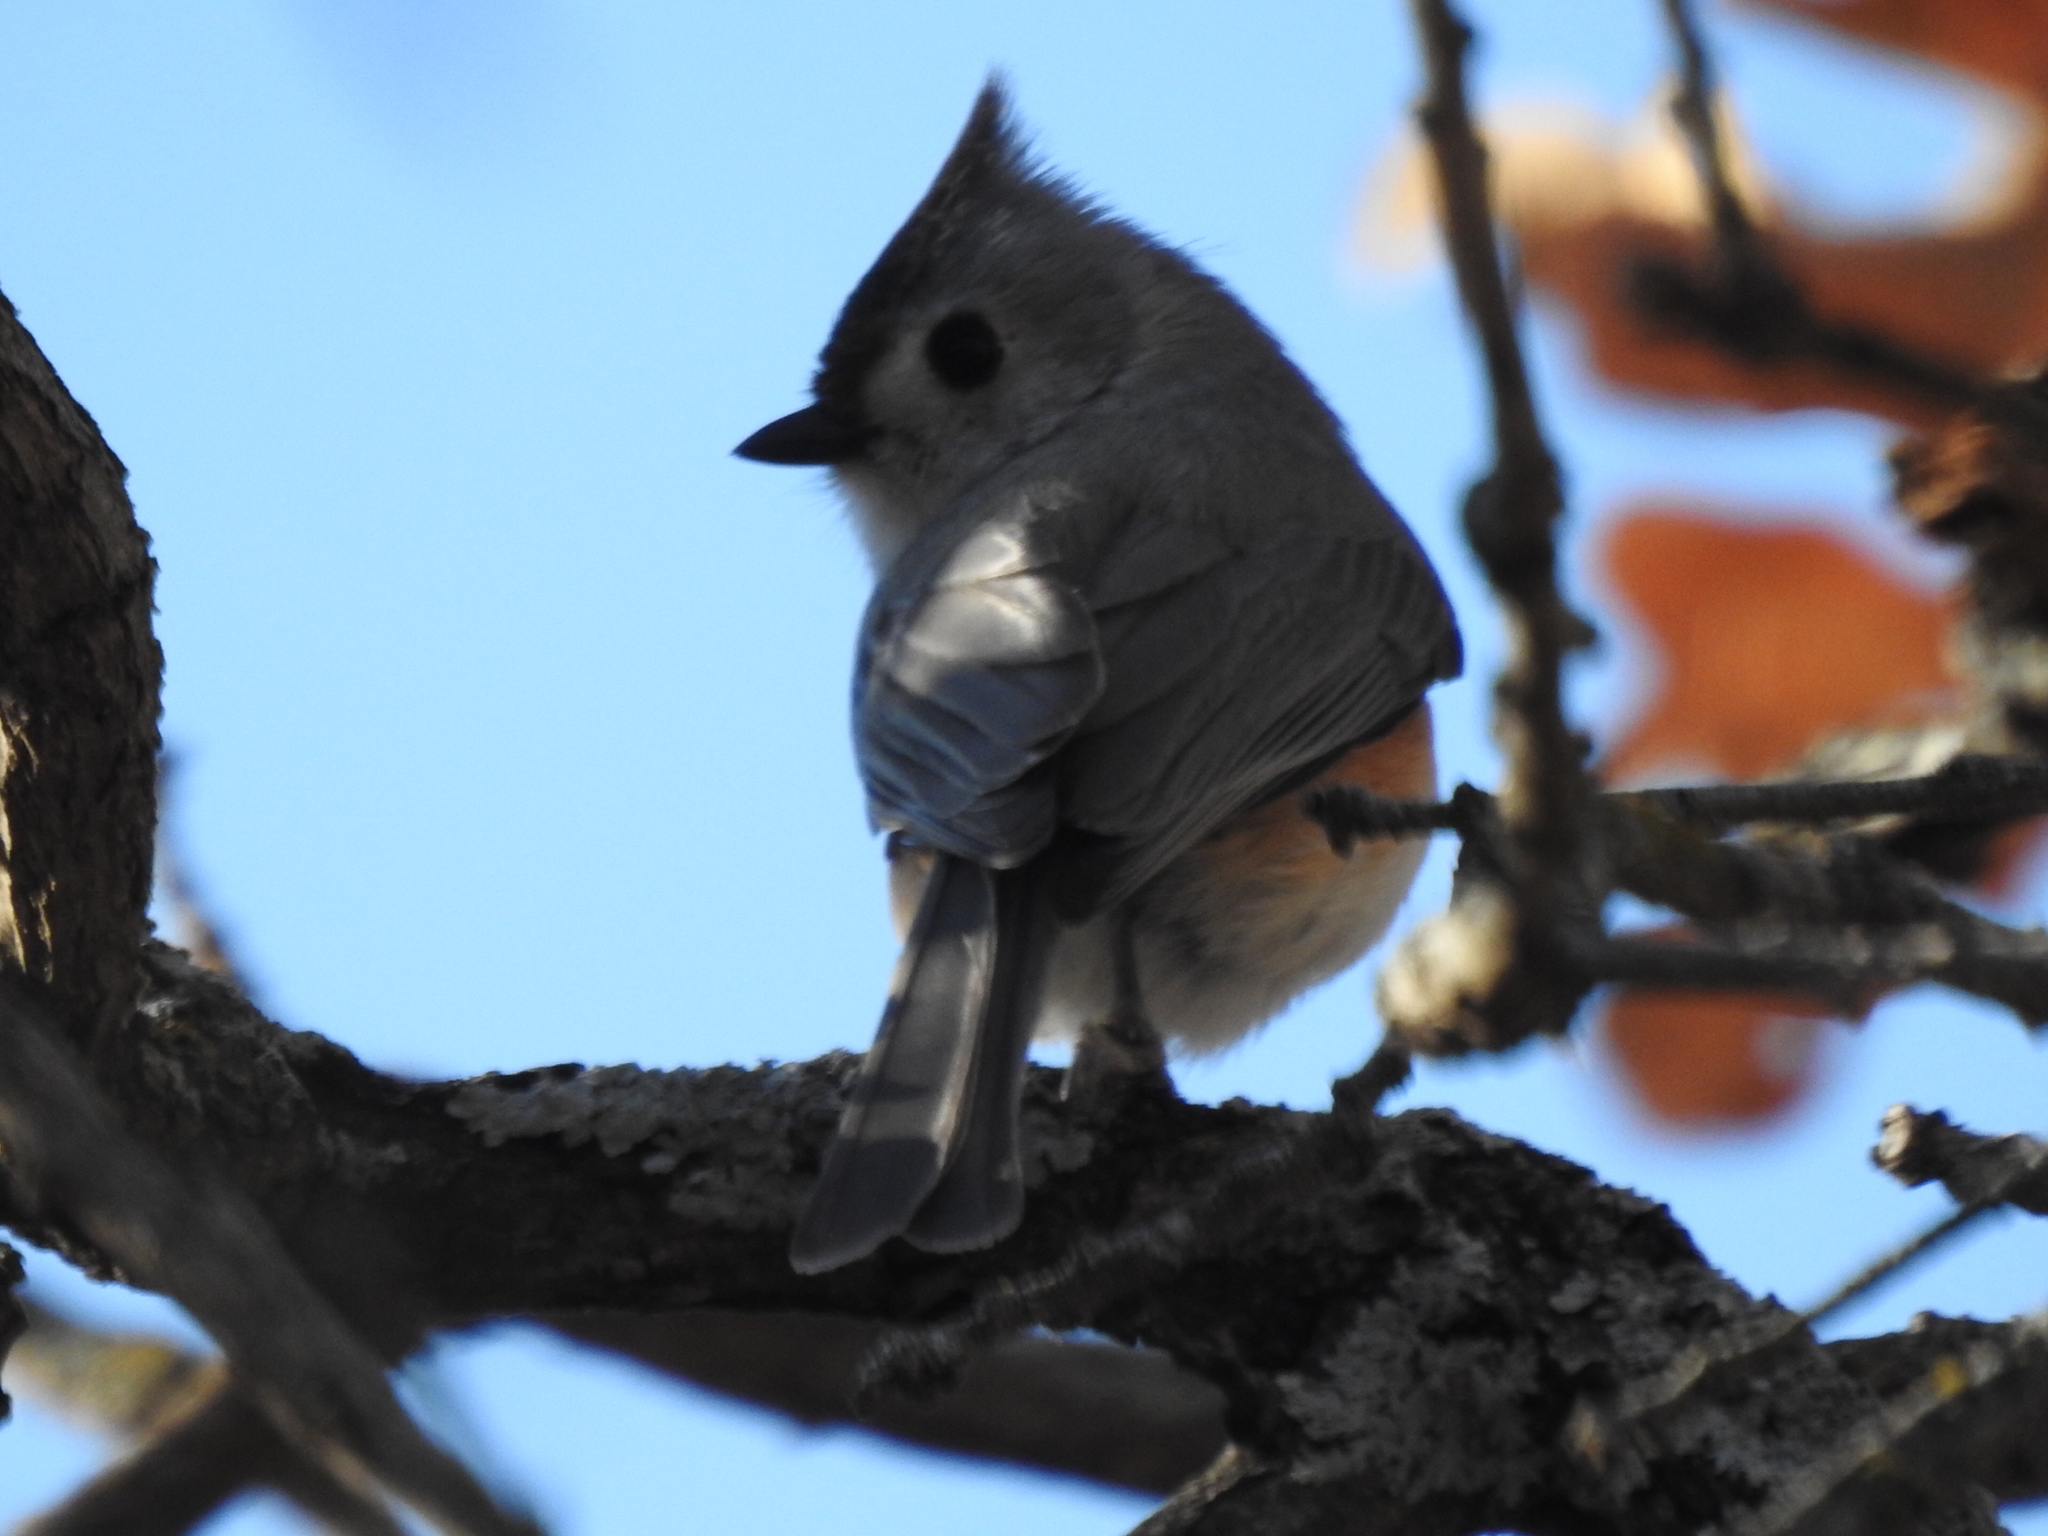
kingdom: Animalia
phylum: Chordata
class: Aves
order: Passeriformes
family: Paridae
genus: Baeolophus
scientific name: Baeolophus
